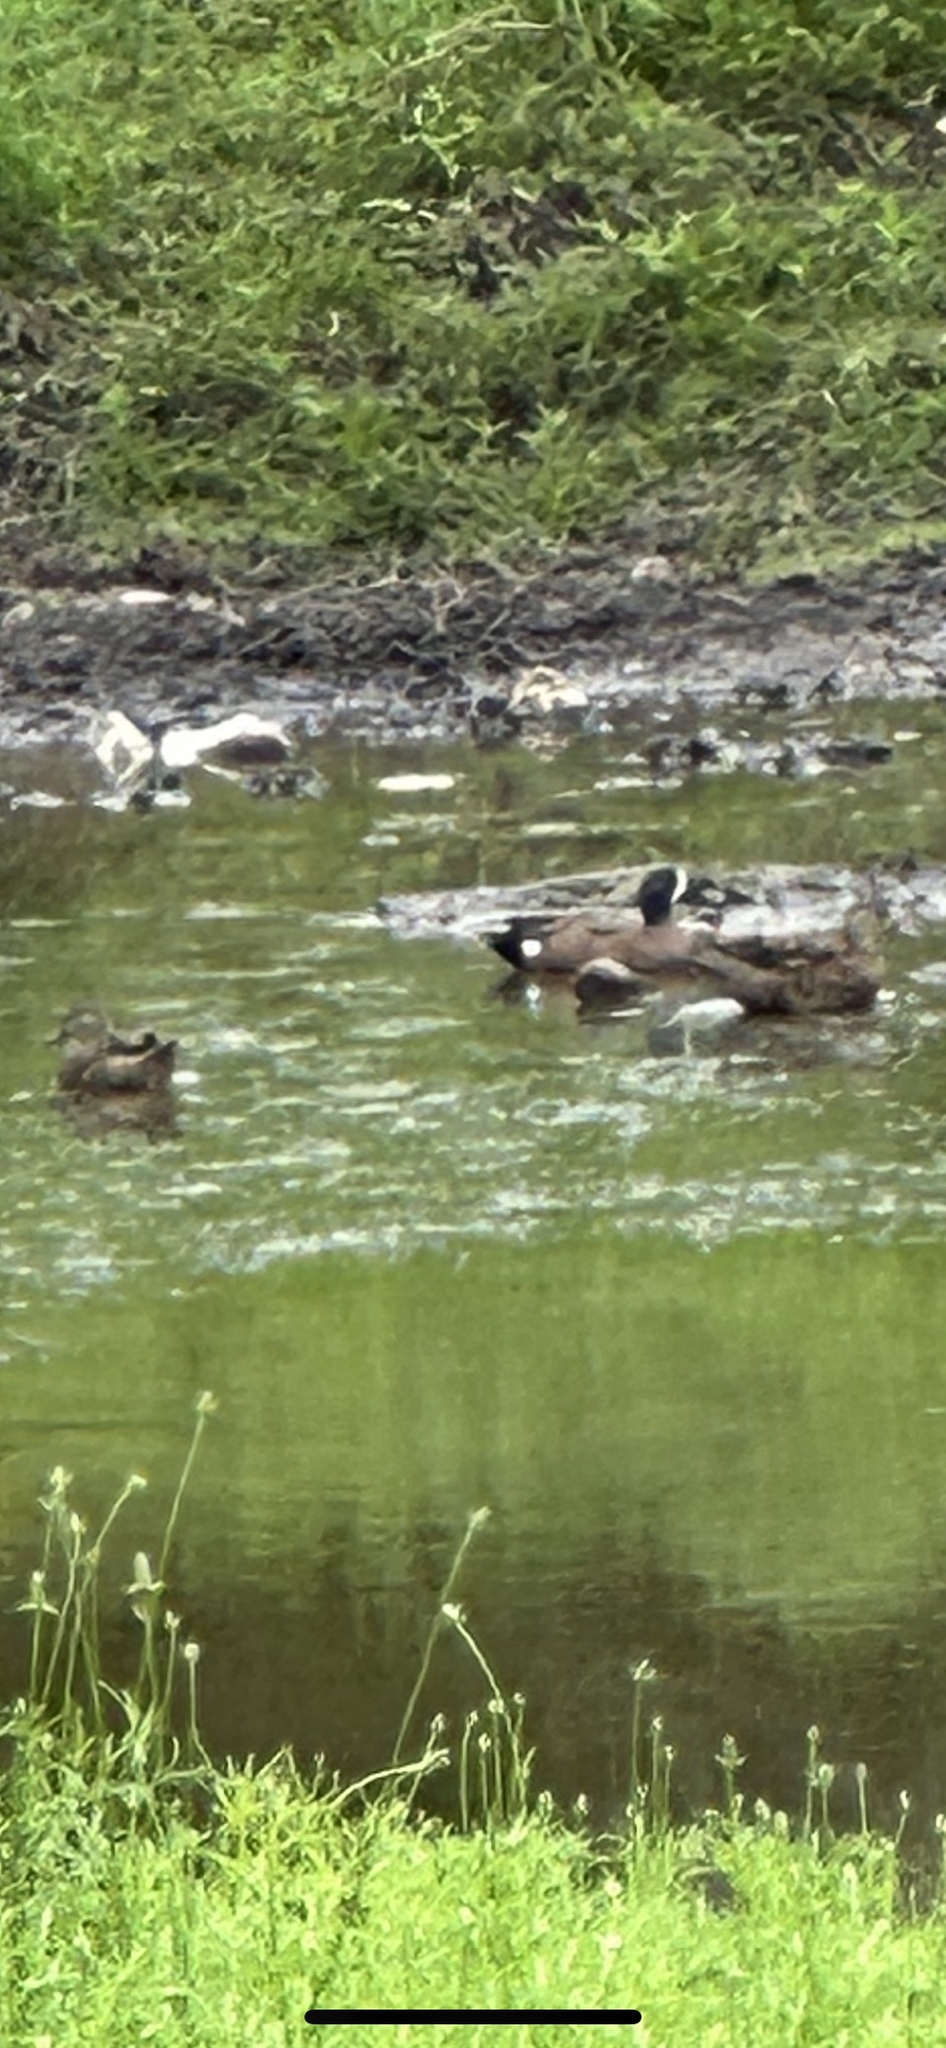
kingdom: Animalia
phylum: Chordata
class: Aves
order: Anseriformes
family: Anatidae
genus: Spatula
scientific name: Spatula discors
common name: Blue-winged teal
